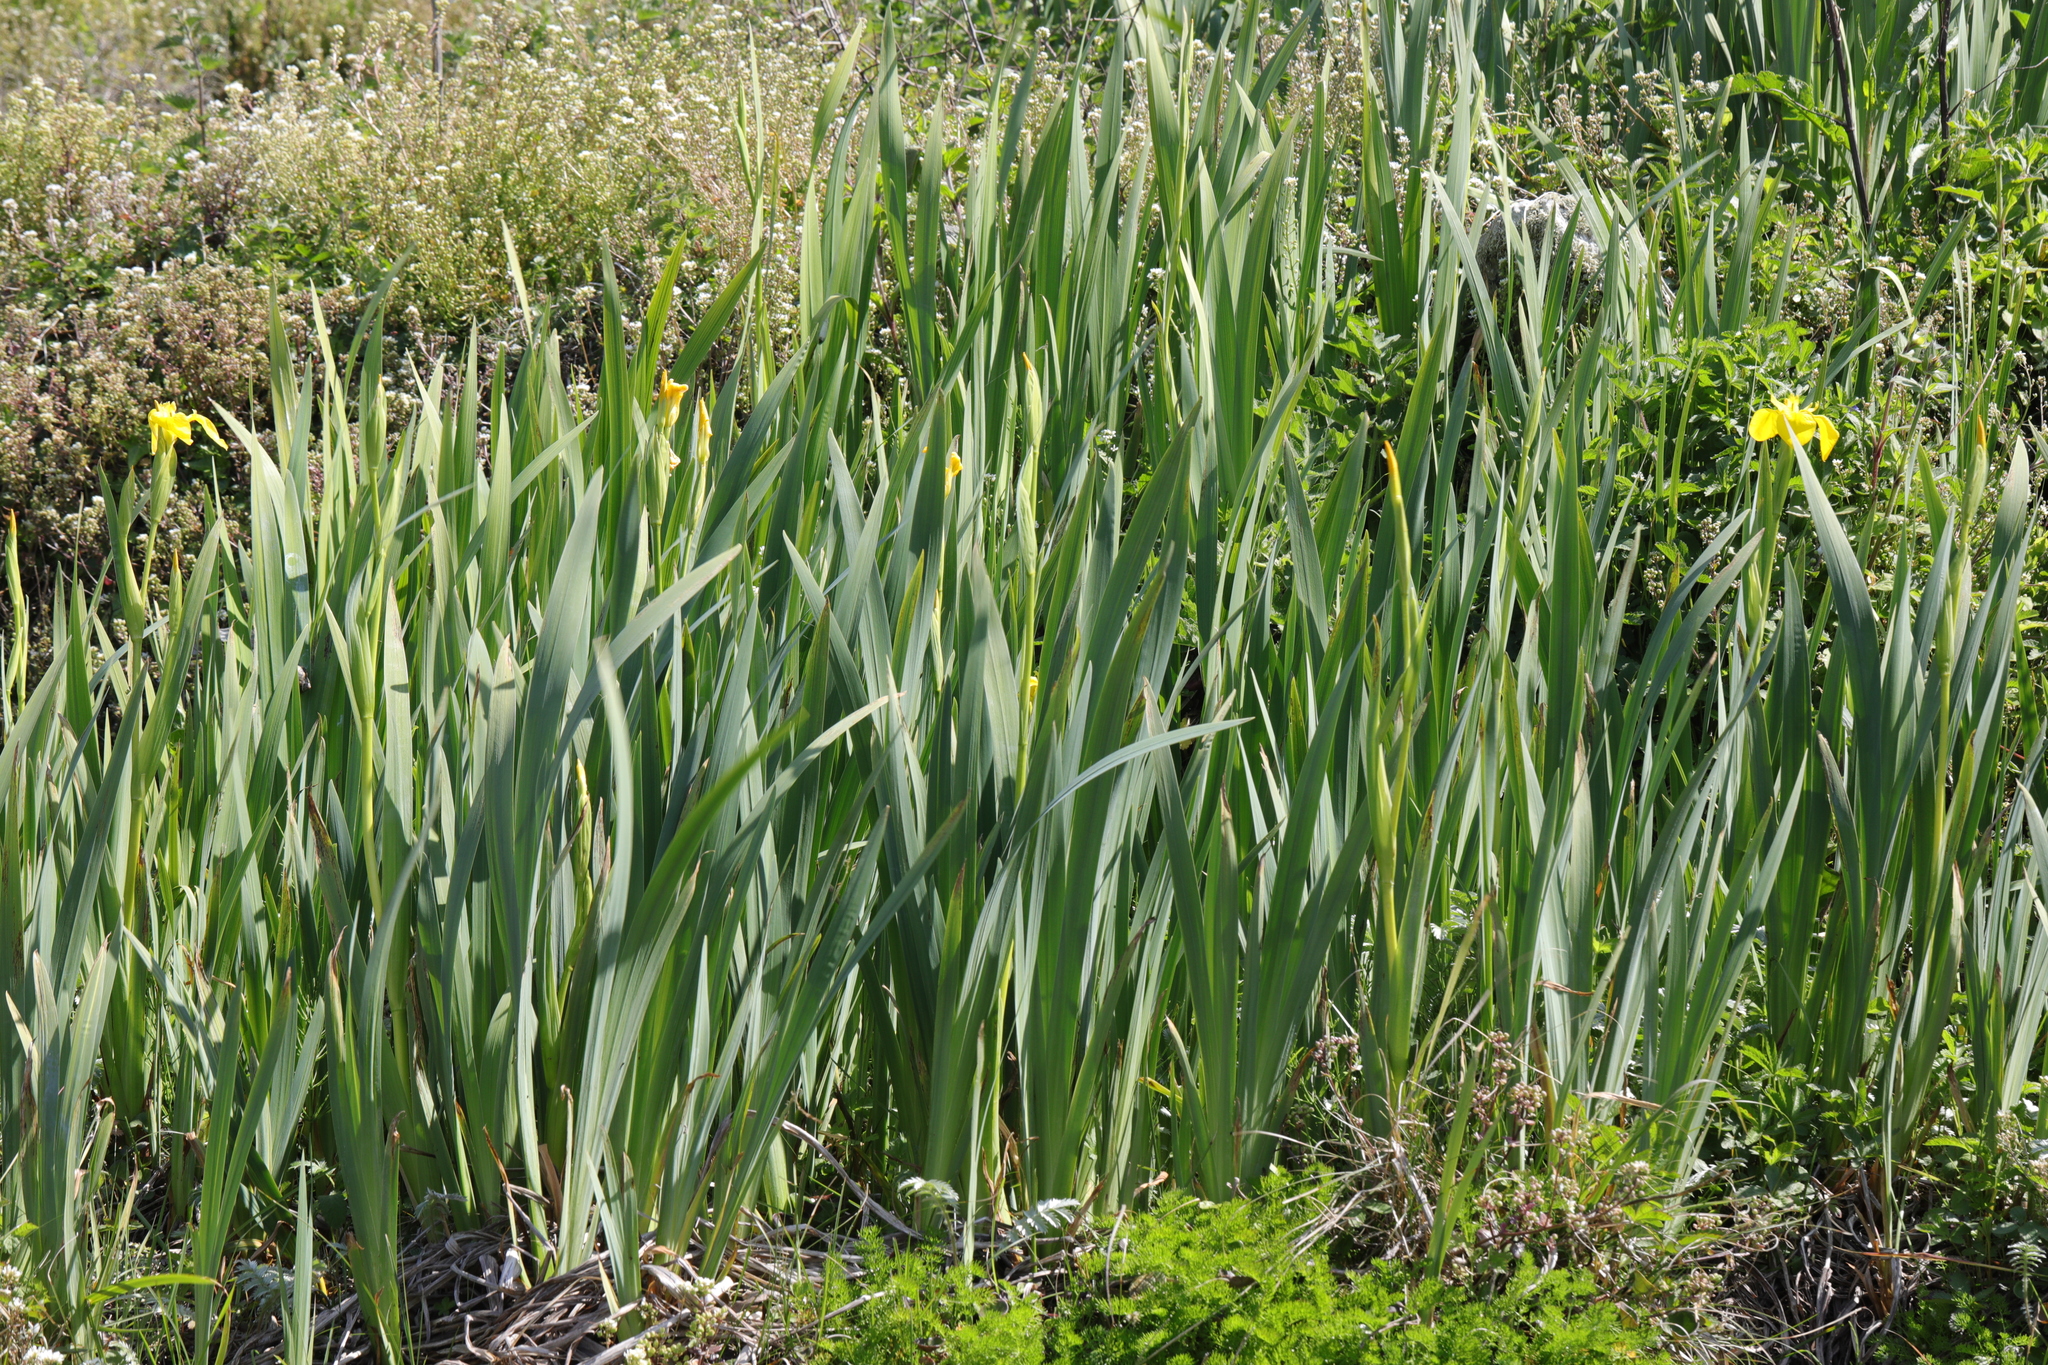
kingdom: Plantae
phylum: Tracheophyta
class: Liliopsida
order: Asparagales
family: Iridaceae
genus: Iris
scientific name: Iris pseudacorus
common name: Yellow flag
